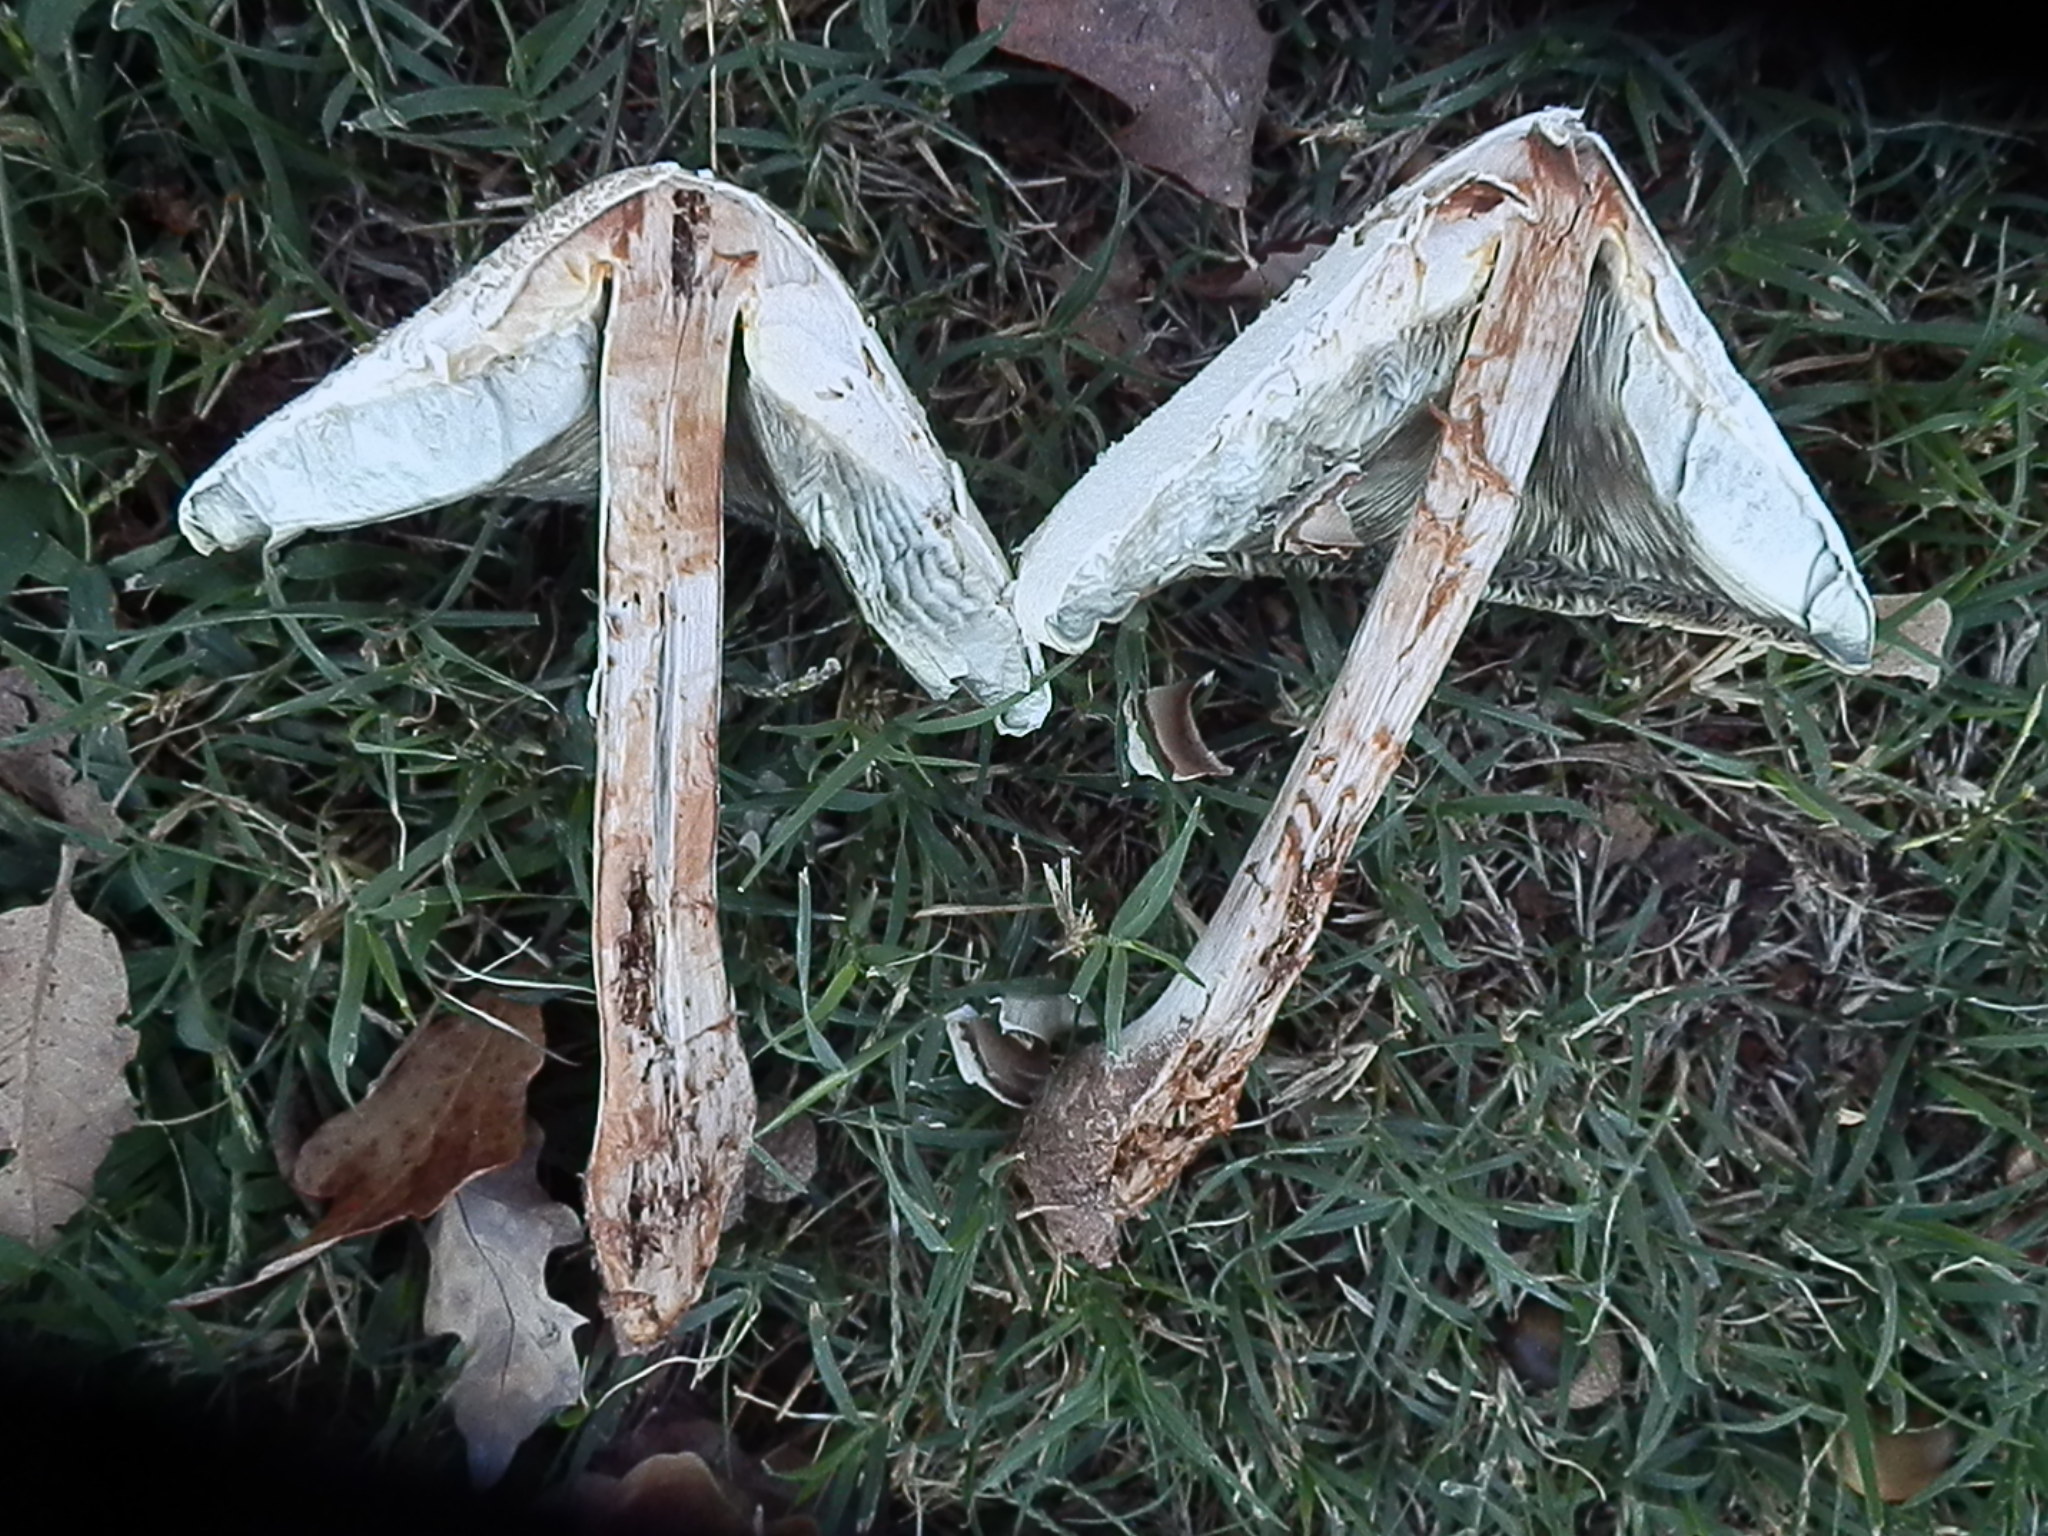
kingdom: Fungi
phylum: Basidiomycota
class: Agaricomycetes
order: Agaricales
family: Agaricaceae
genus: Chlorophyllum
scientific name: Chlorophyllum molybdites
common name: False parasol
